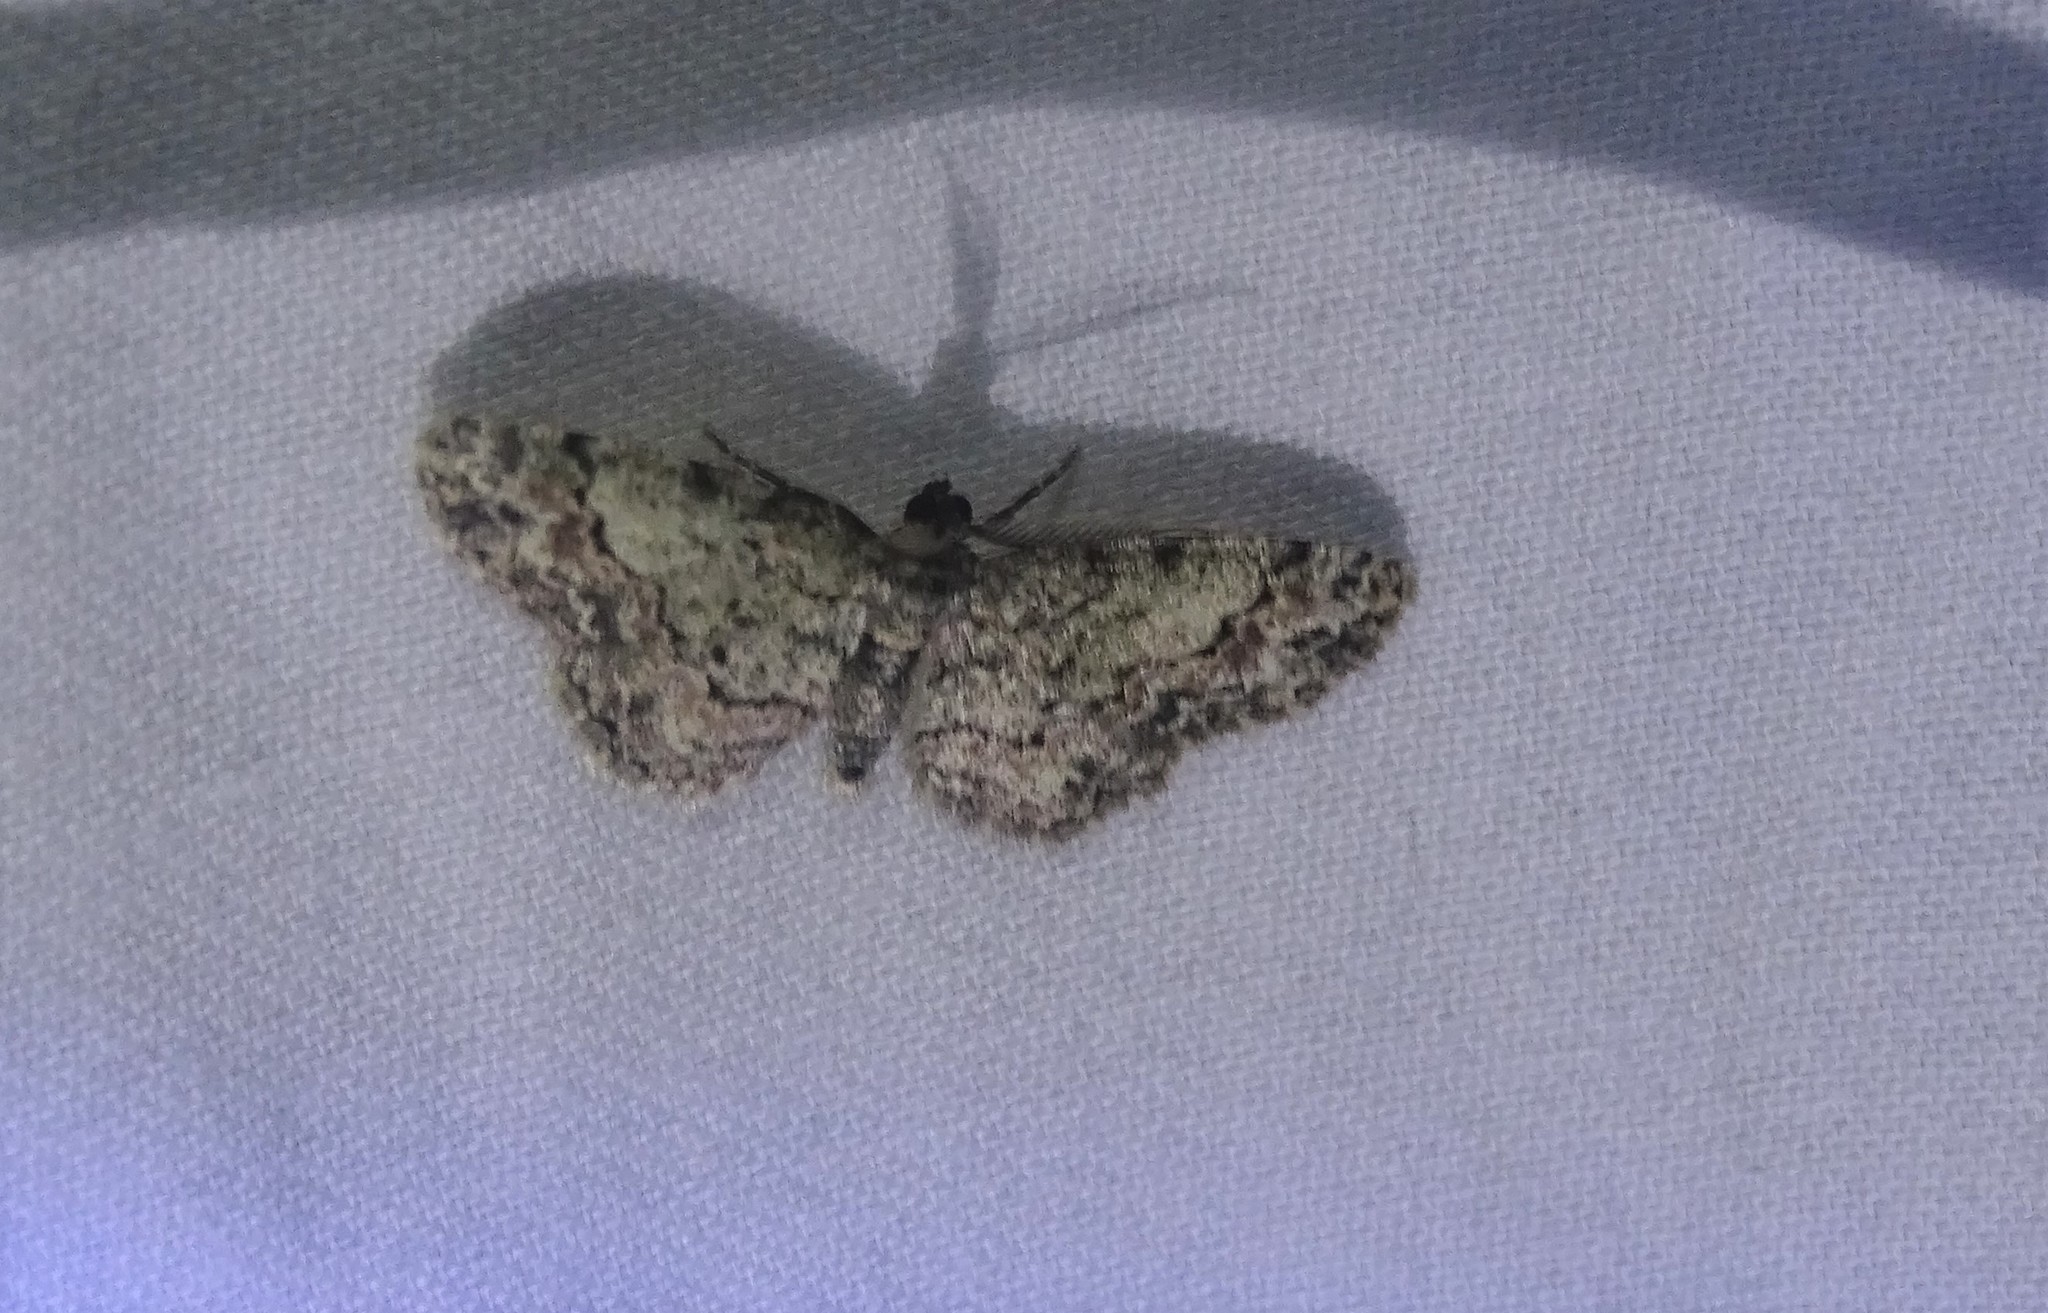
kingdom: Animalia
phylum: Arthropoda
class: Insecta
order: Lepidoptera
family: Geometridae
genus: Glenoides
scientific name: Glenoides texanaria
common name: Texas gray
